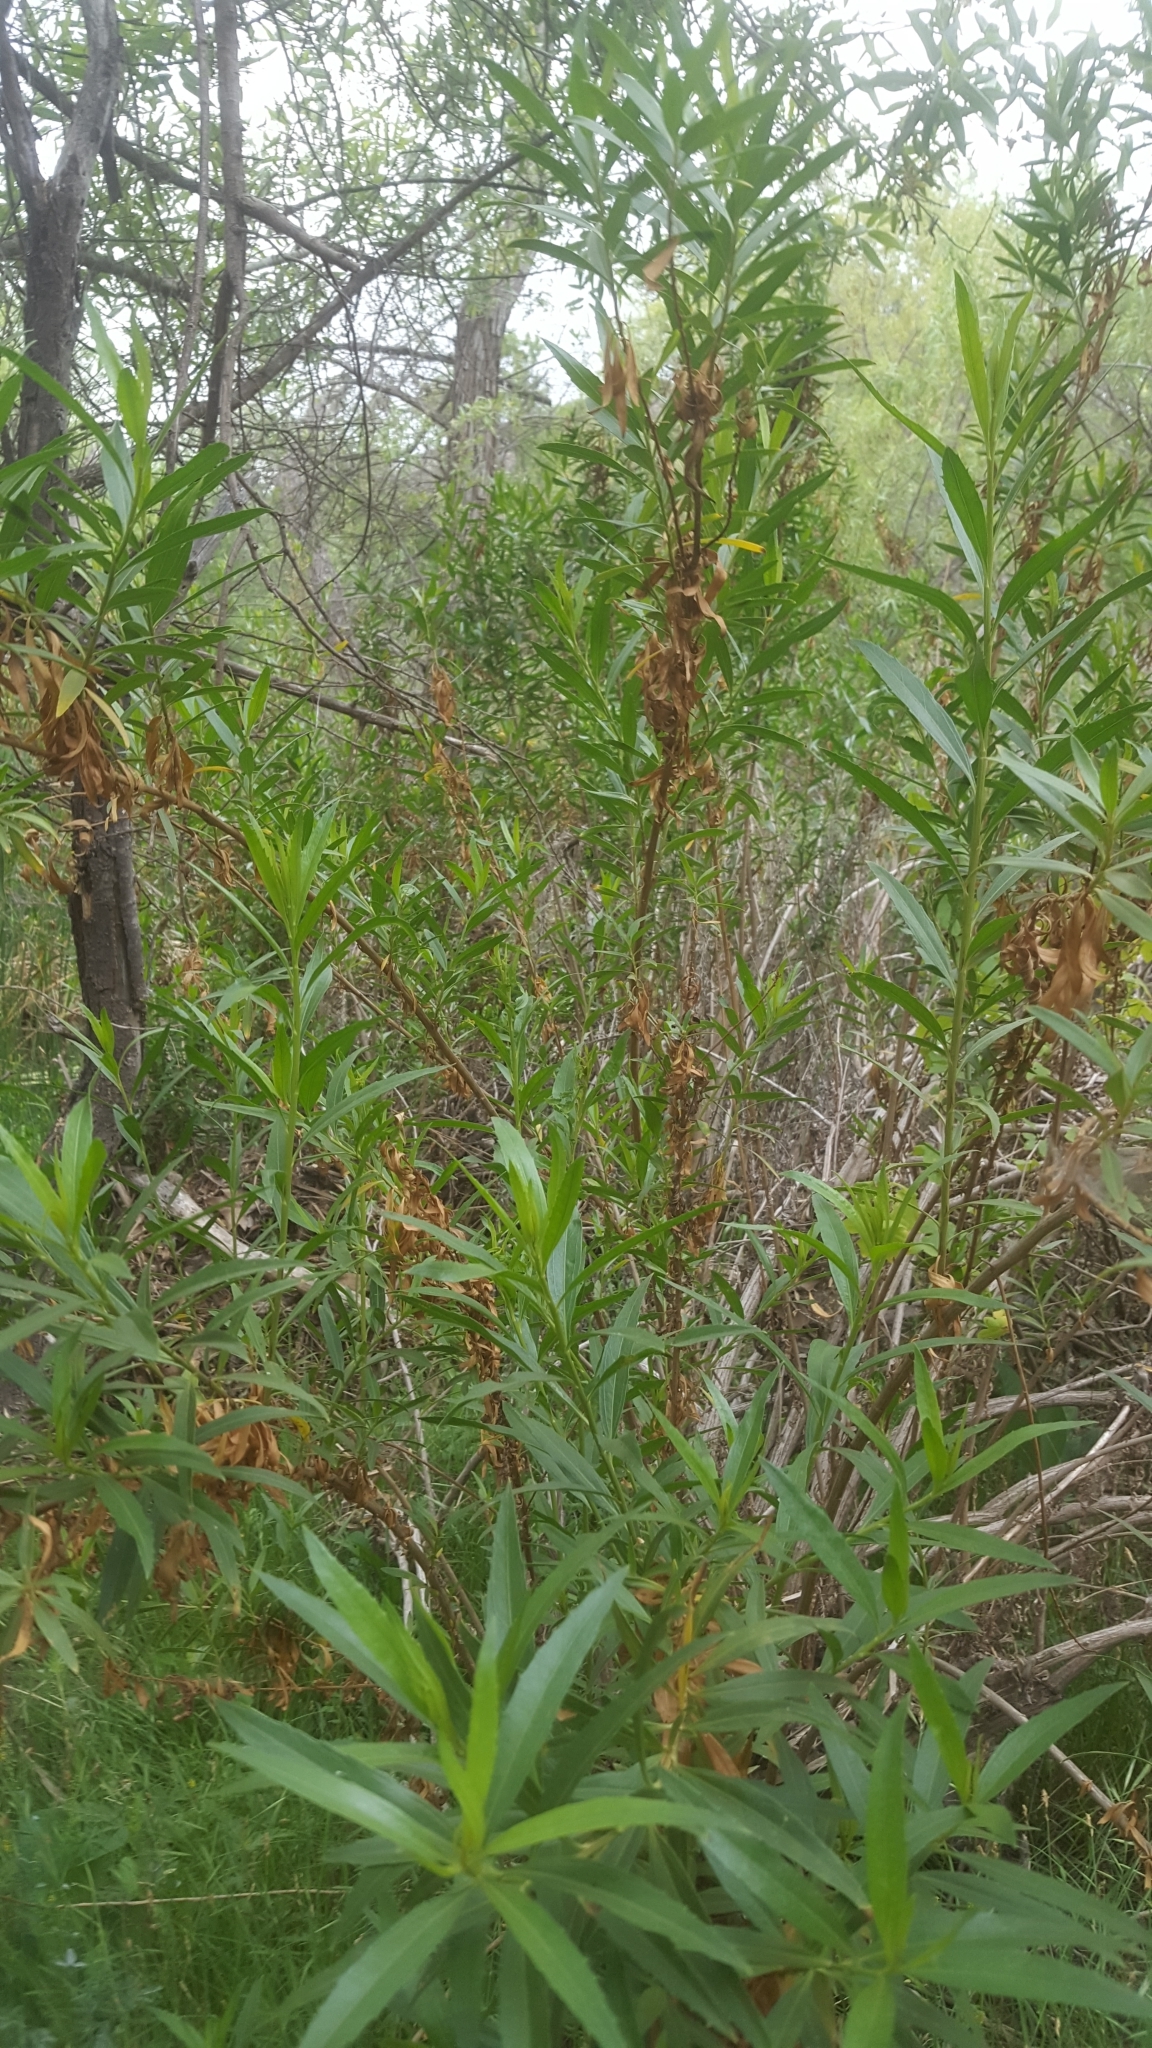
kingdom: Plantae
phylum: Tracheophyta
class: Magnoliopsida
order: Asterales
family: Asteraceae
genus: Baccharis
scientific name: Baccharis salicifolia
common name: Sticky baccharis
